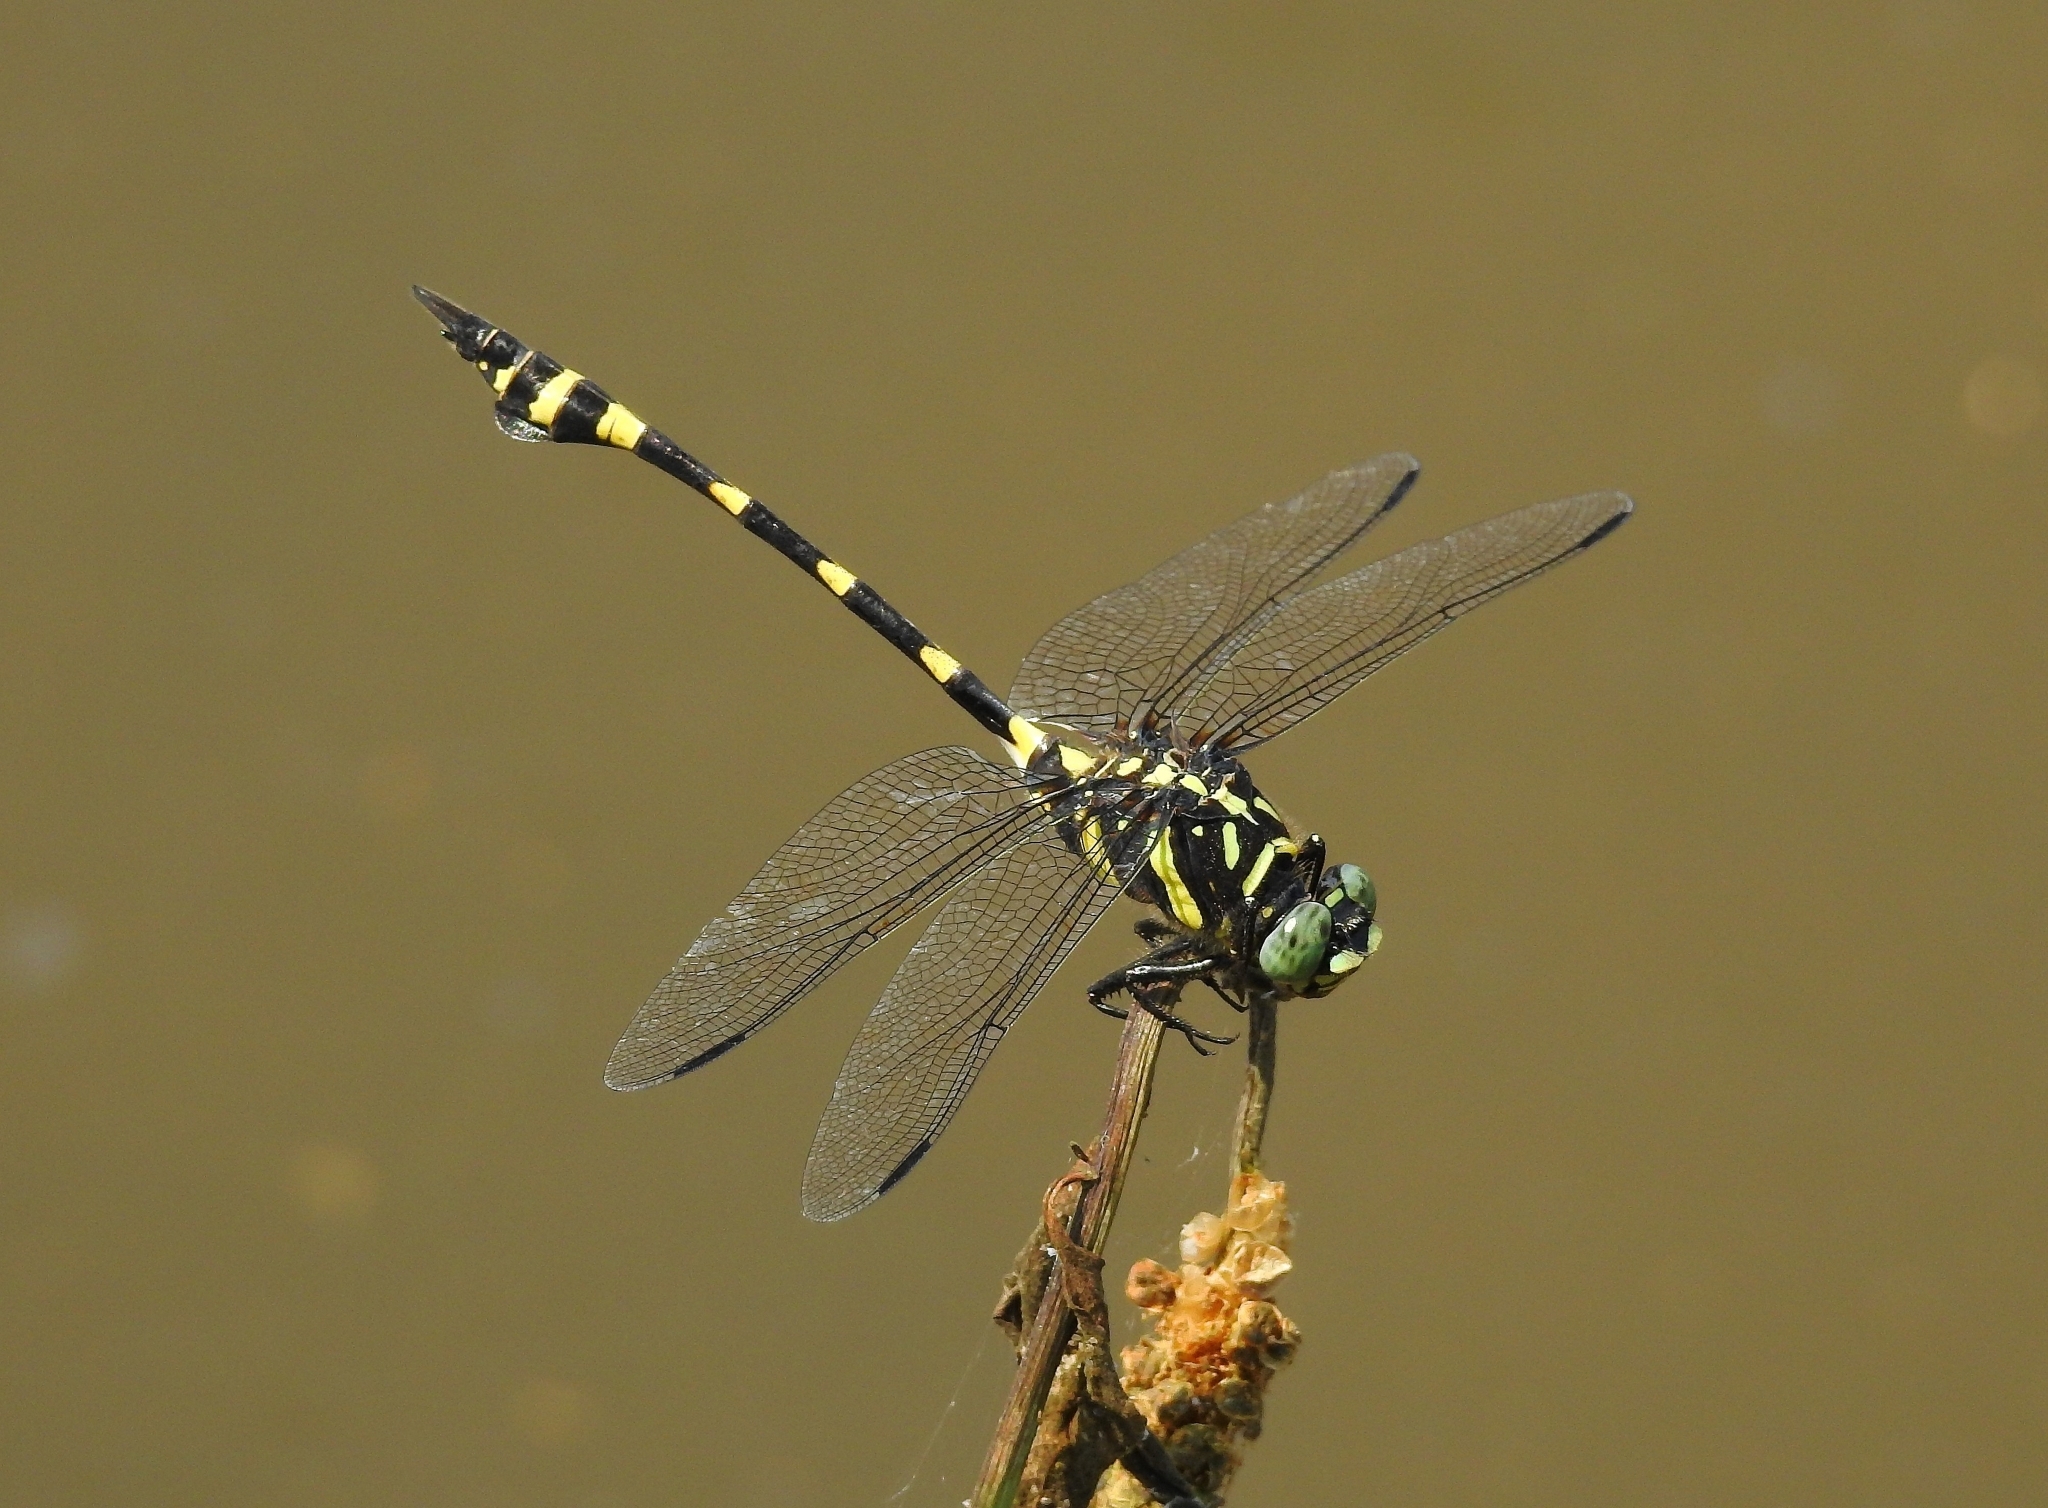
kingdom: Animalia
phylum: Arthropoda
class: Insecta
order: Odonata
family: Gomphidae
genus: Ictinogomphus
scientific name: Ictinogomphus rapax
